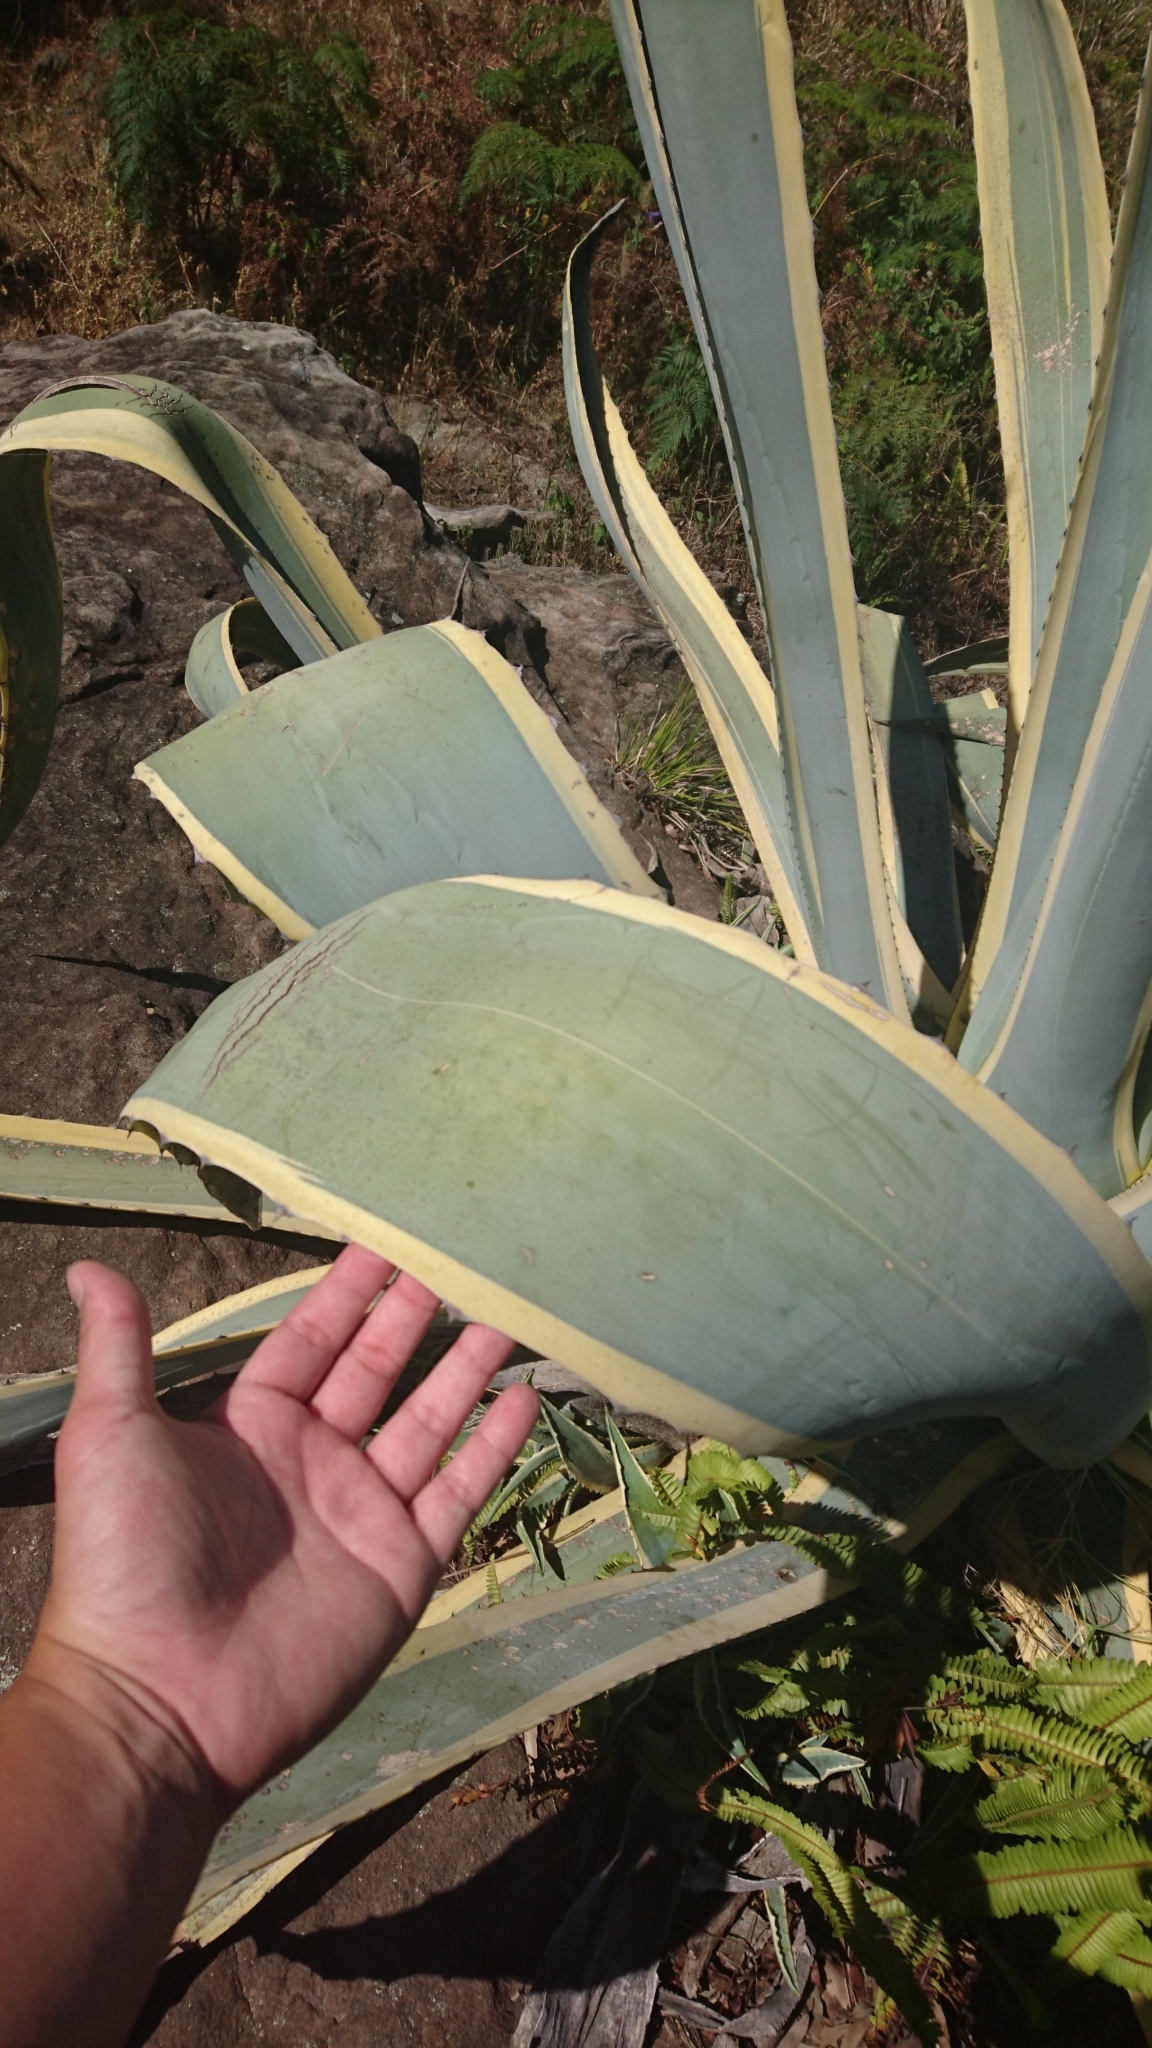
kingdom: Plantae
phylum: Tracheophyta
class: Liliopsida
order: Asparagales
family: Asparagaceae
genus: Agave
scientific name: Agave americana
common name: Centuryplant
